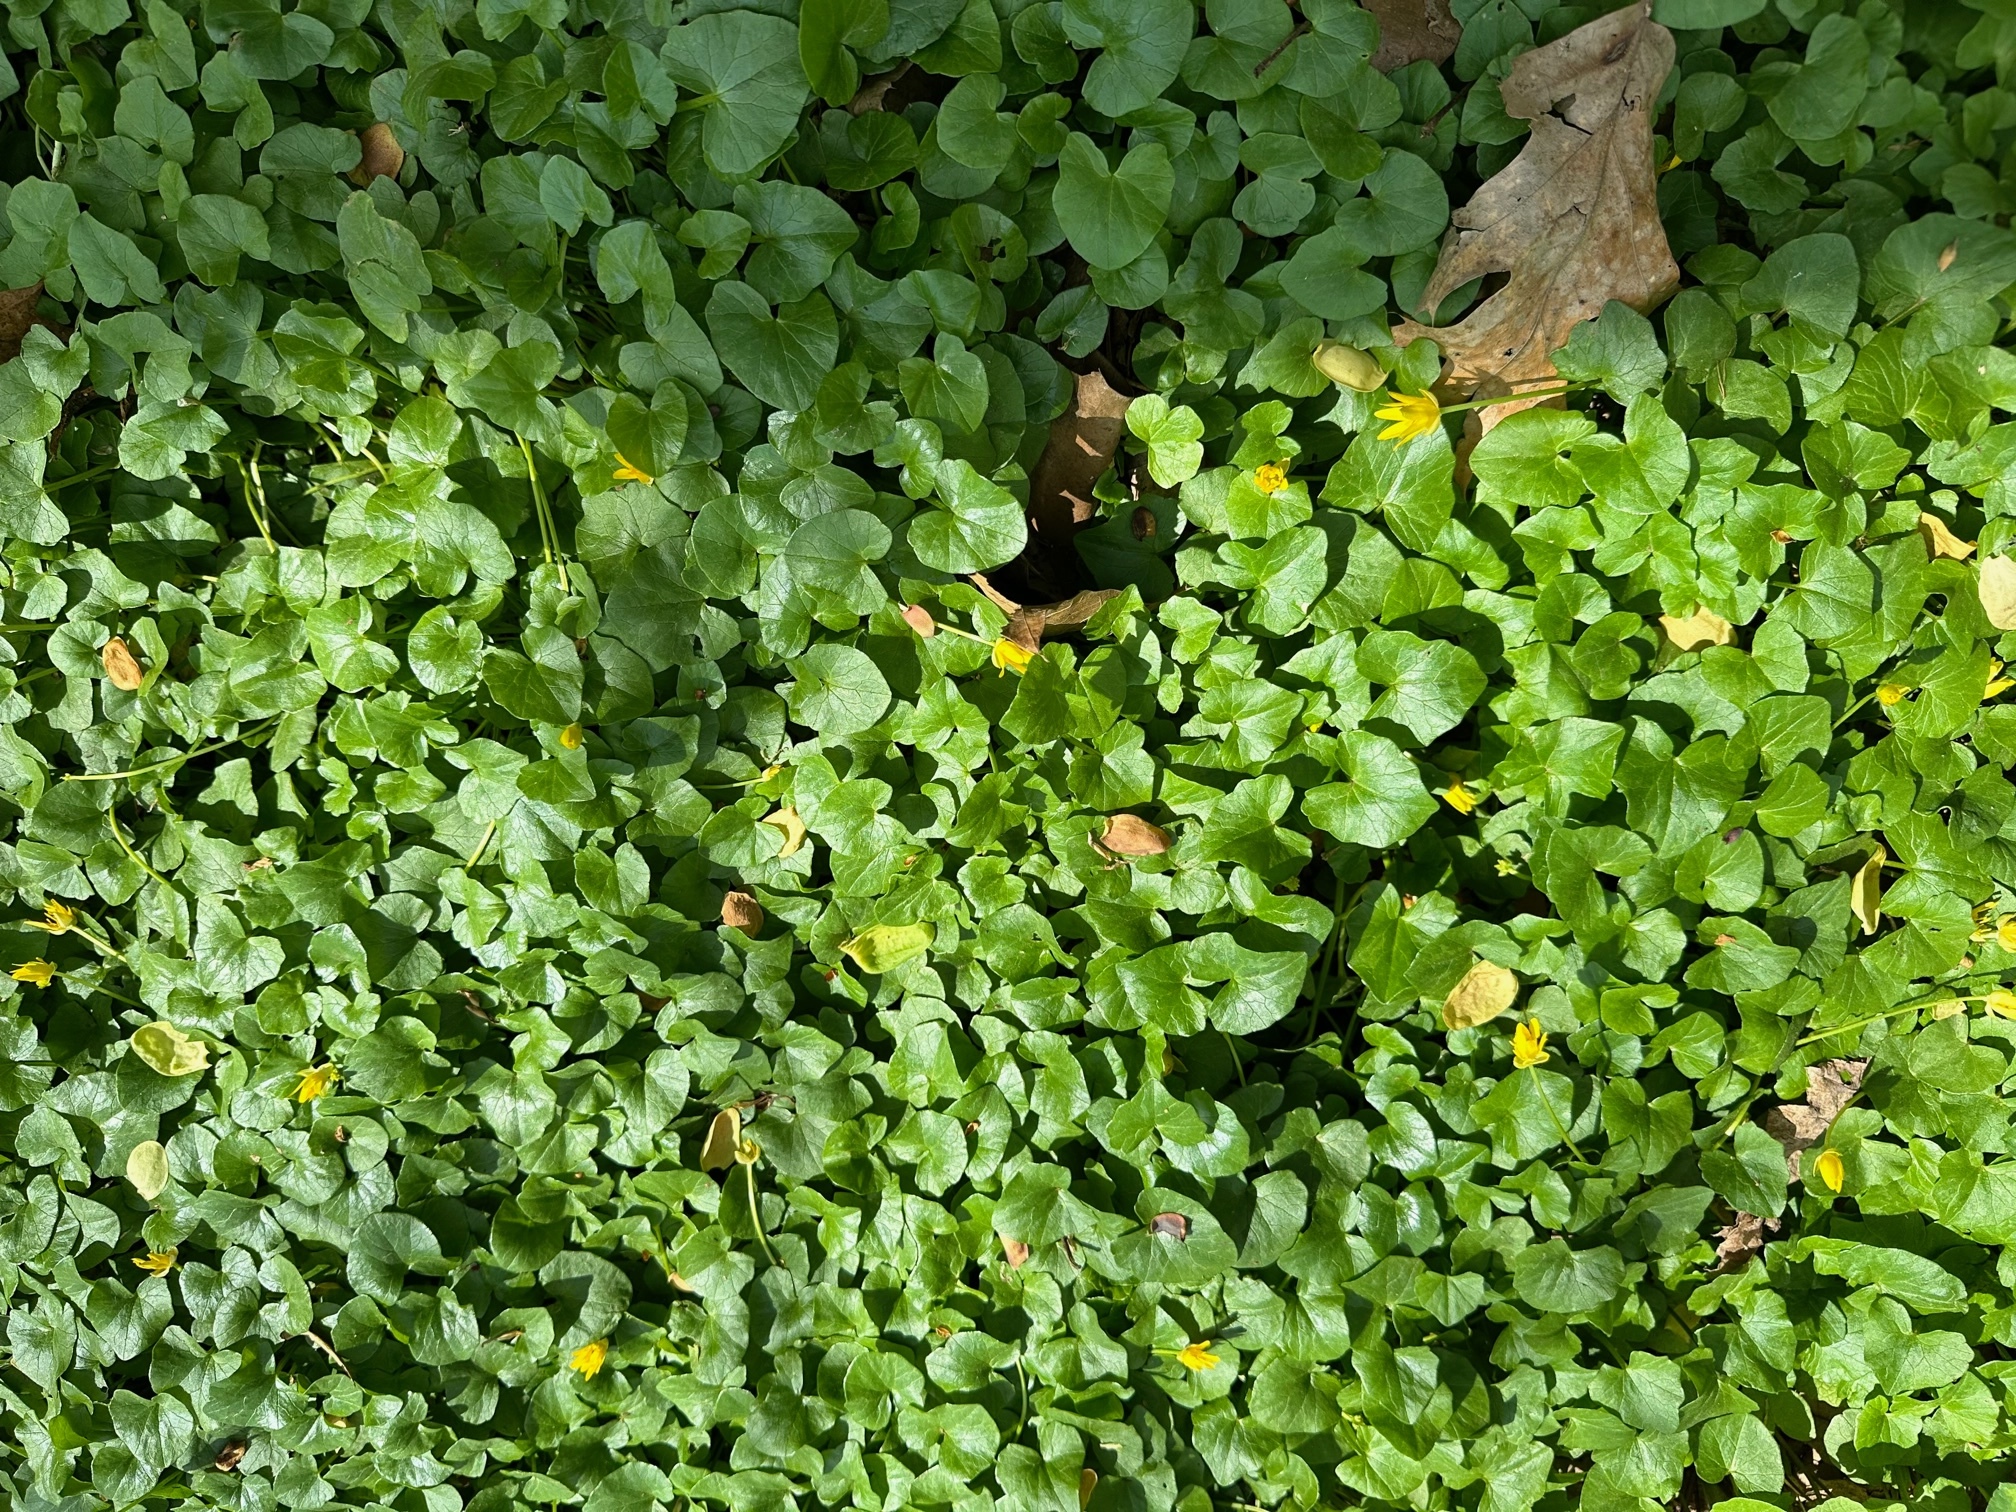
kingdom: Plantae
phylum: Tracheophyta
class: Magnoliopsida
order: Ranunculales
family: Ranunculaceae
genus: Ficaria
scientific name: Ficaria verna
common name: Lesser celandine
